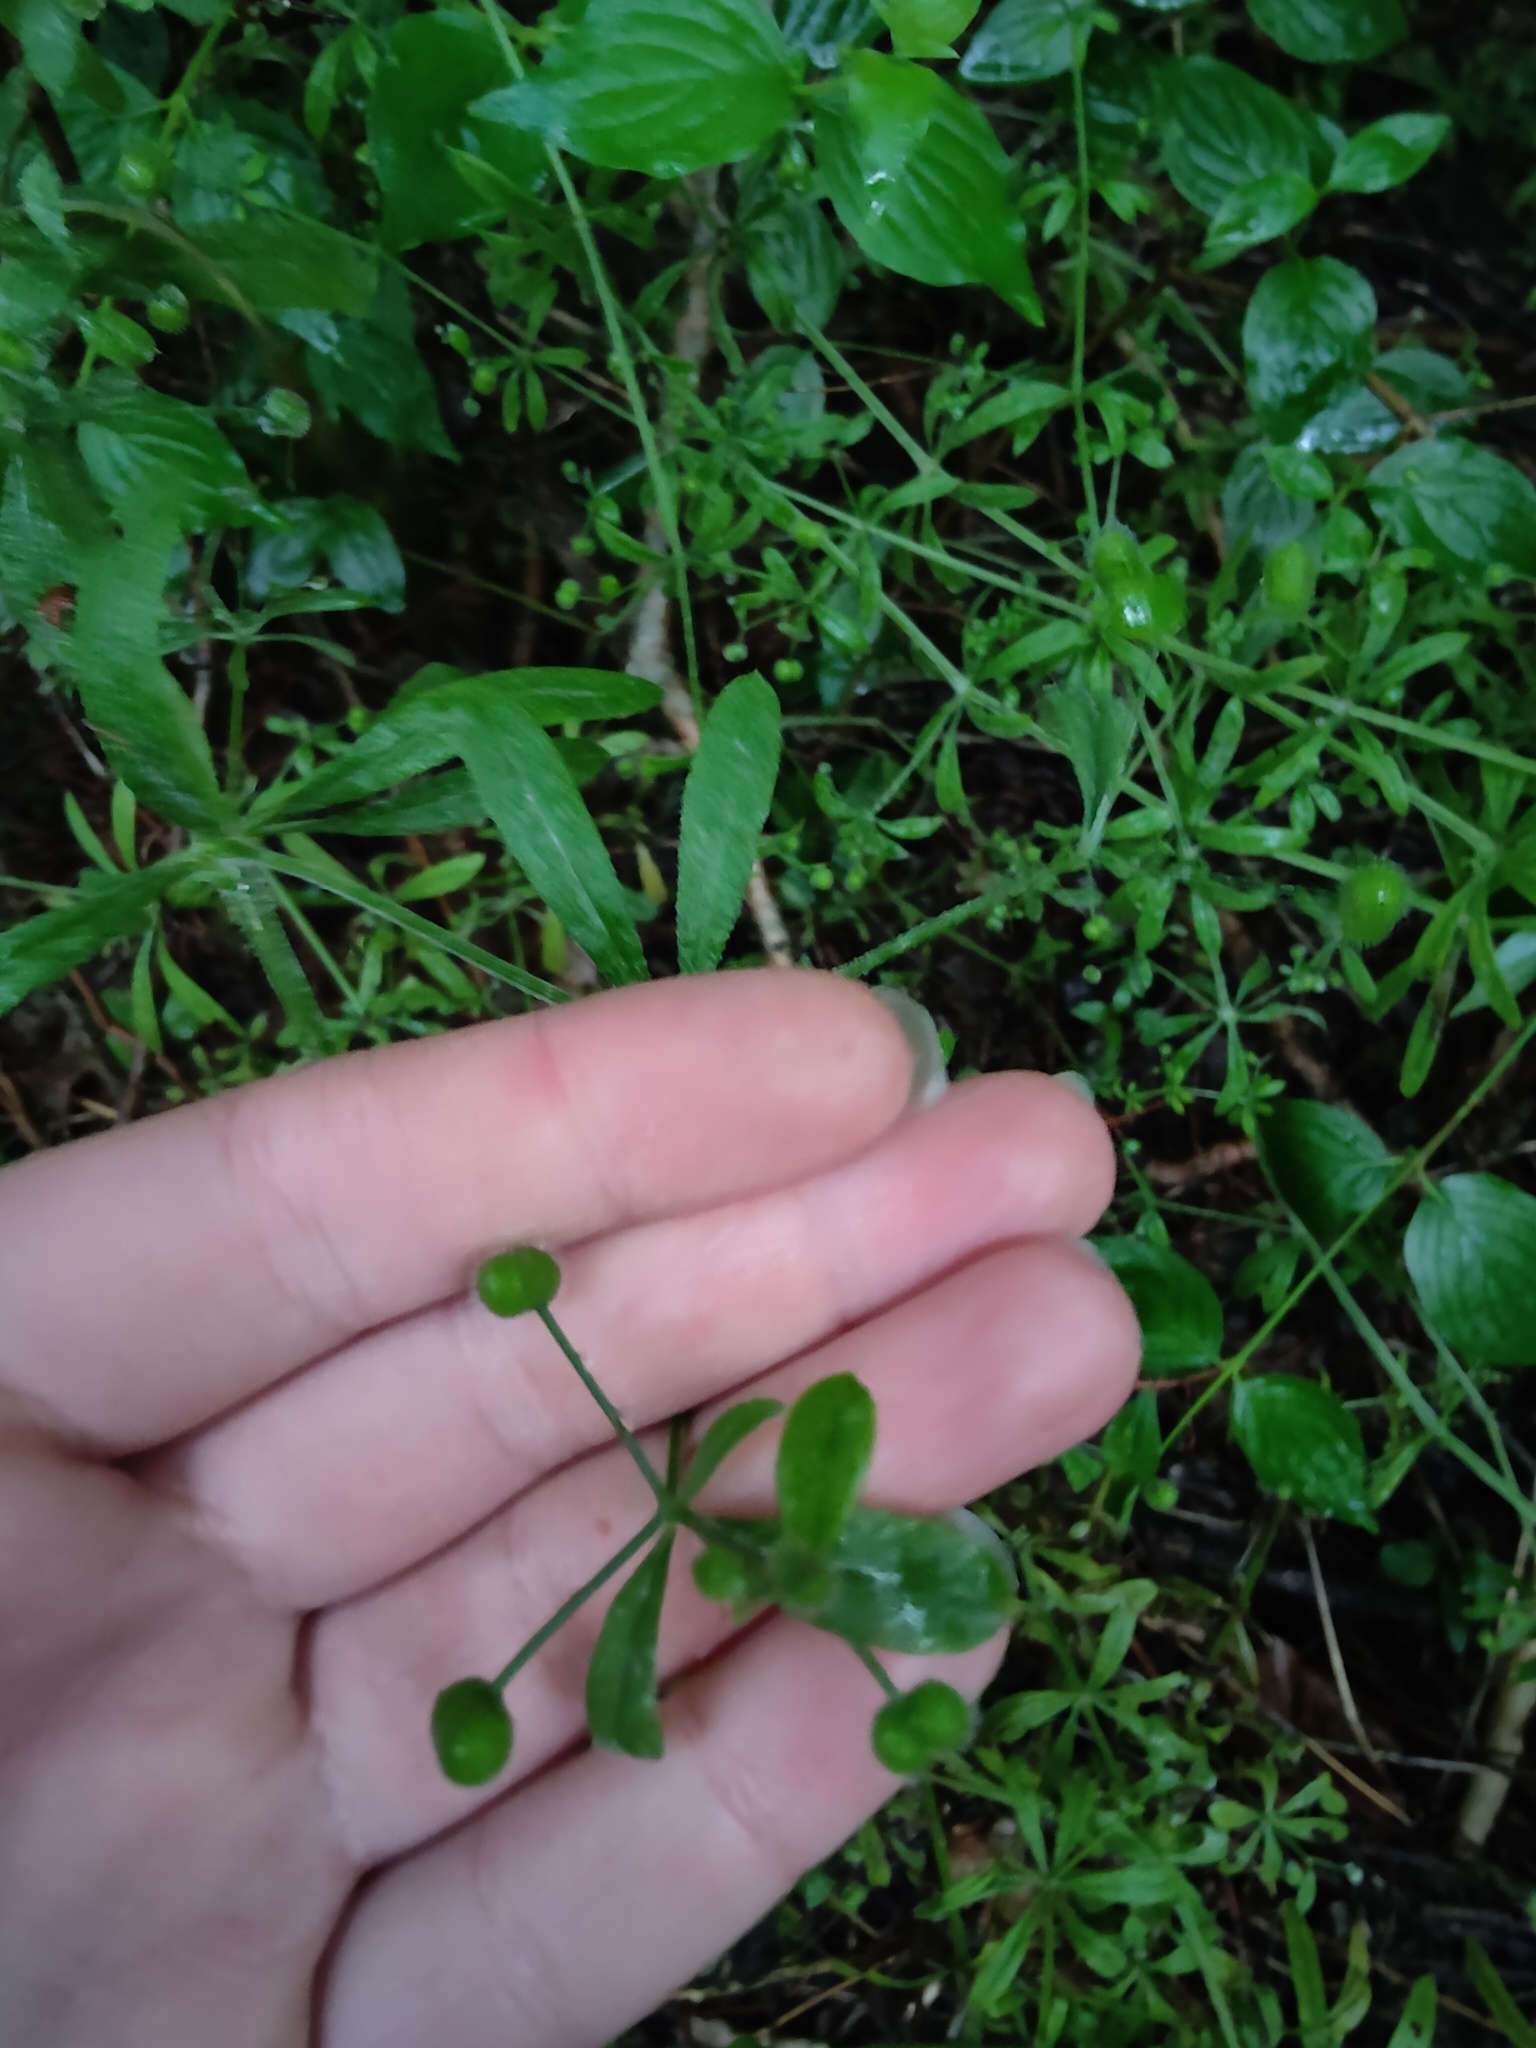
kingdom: Plantae
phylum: Tracheophyta
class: Magnoliopsida
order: Gentianales
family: Rubiaceae
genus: Galium
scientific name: Galium aparine
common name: Cleavers
